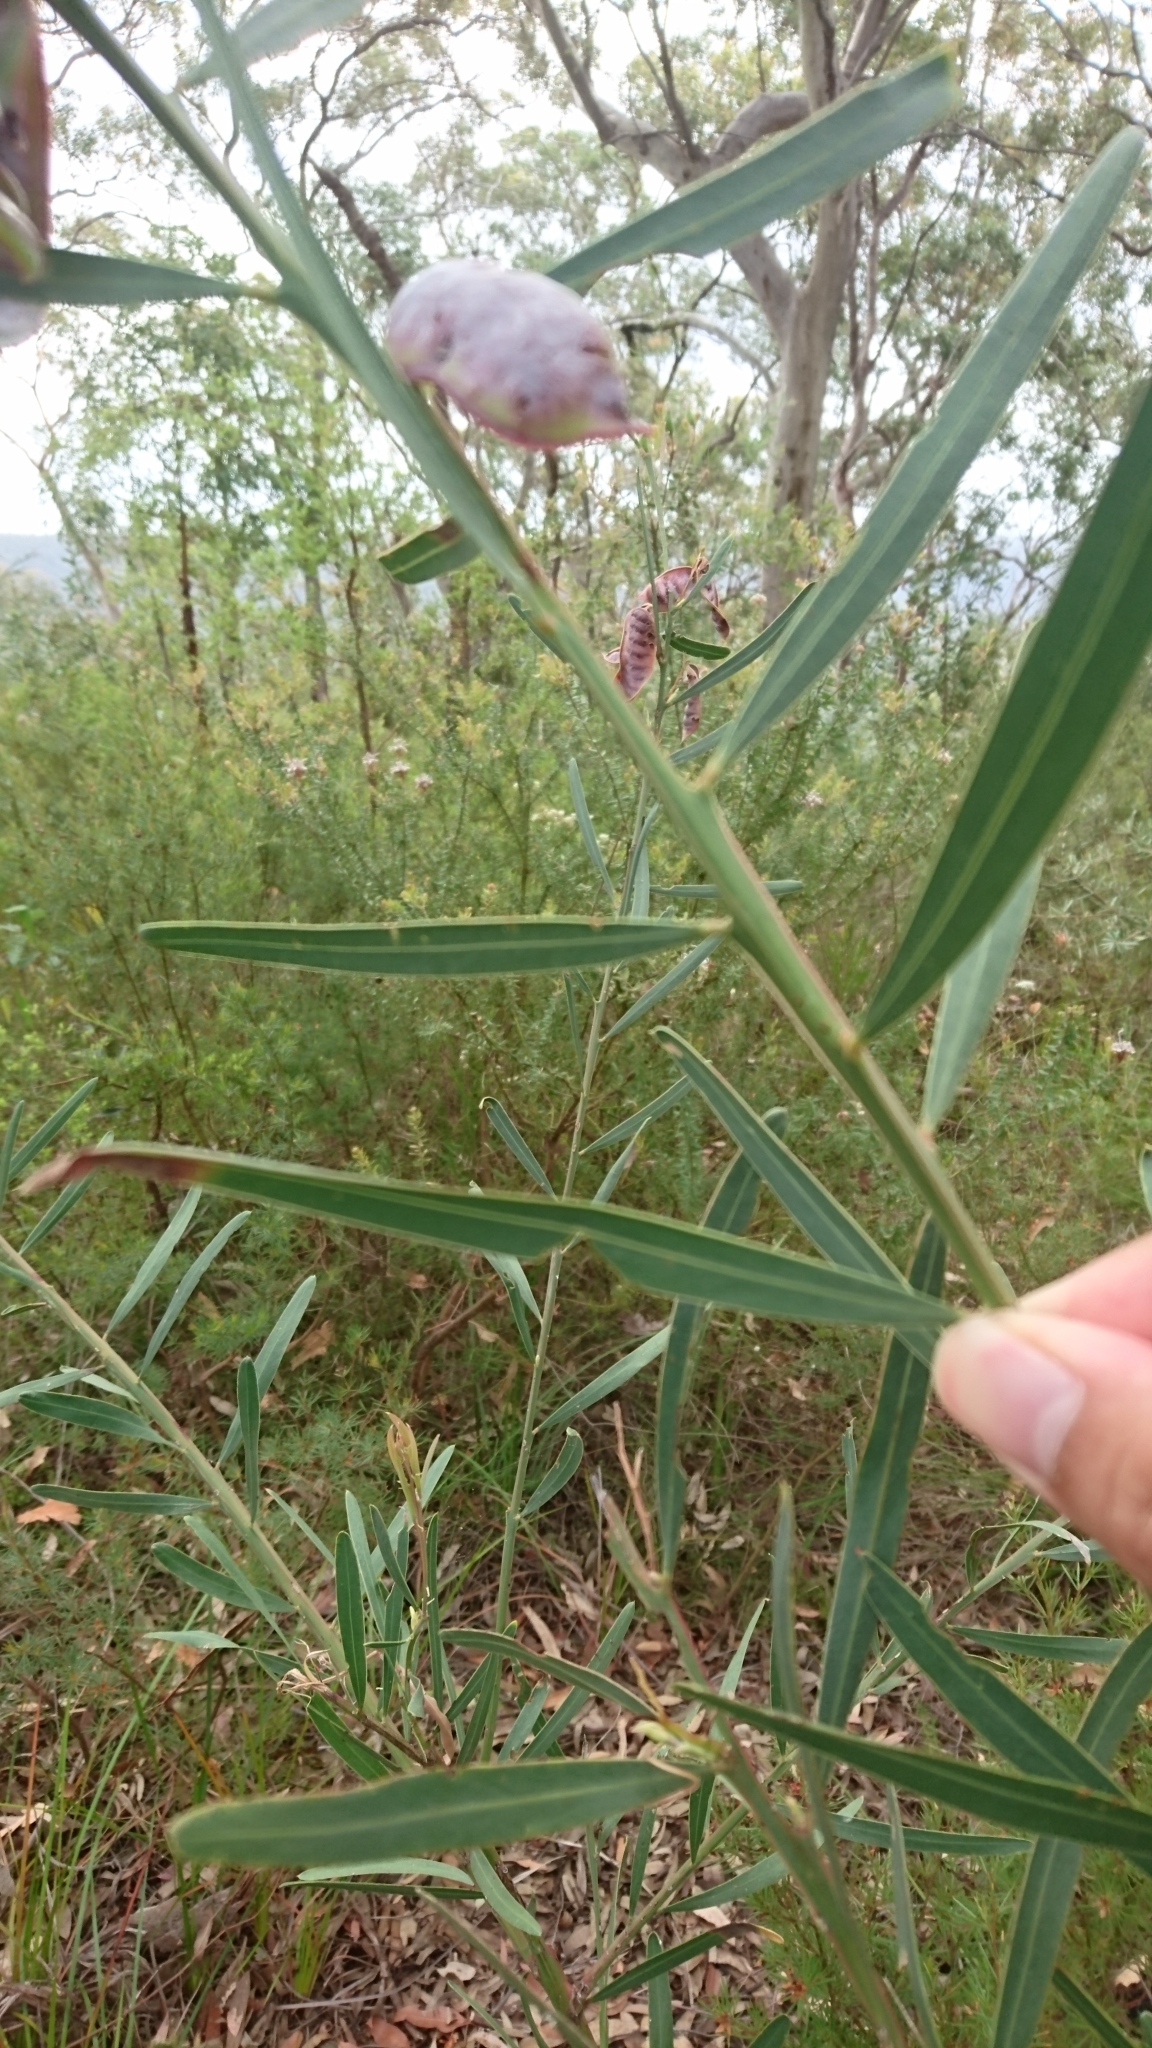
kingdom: Plantae
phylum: Tracheophyta
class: Magnoliopsida
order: Fabales
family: Fabaceae
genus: Acacia
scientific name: Acacia suaveolens
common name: Sweet acacia
